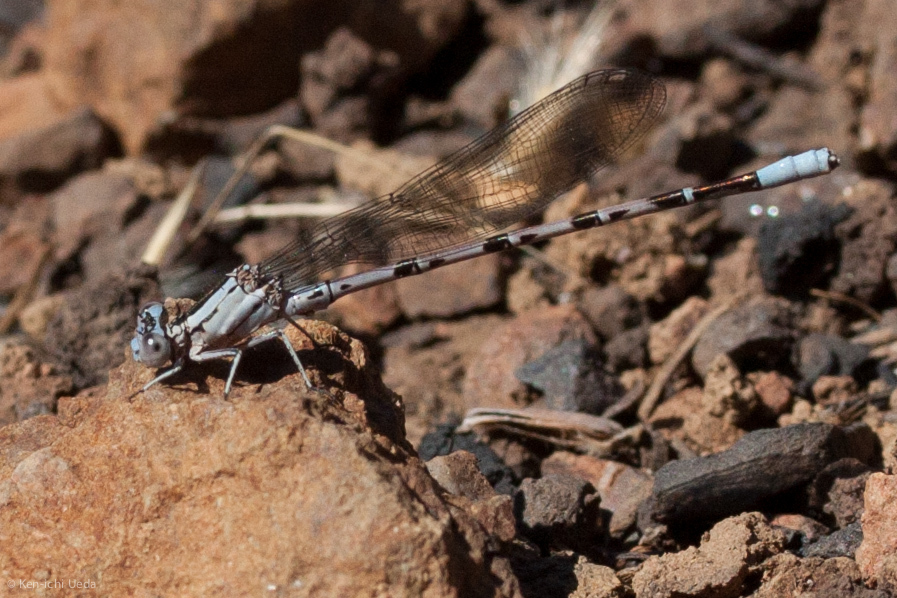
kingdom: Animalia
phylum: Arthropoda
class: Insecta
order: Odonata
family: Coenagrionidae
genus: Argia
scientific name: Argia vivida
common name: Vivid dancer
